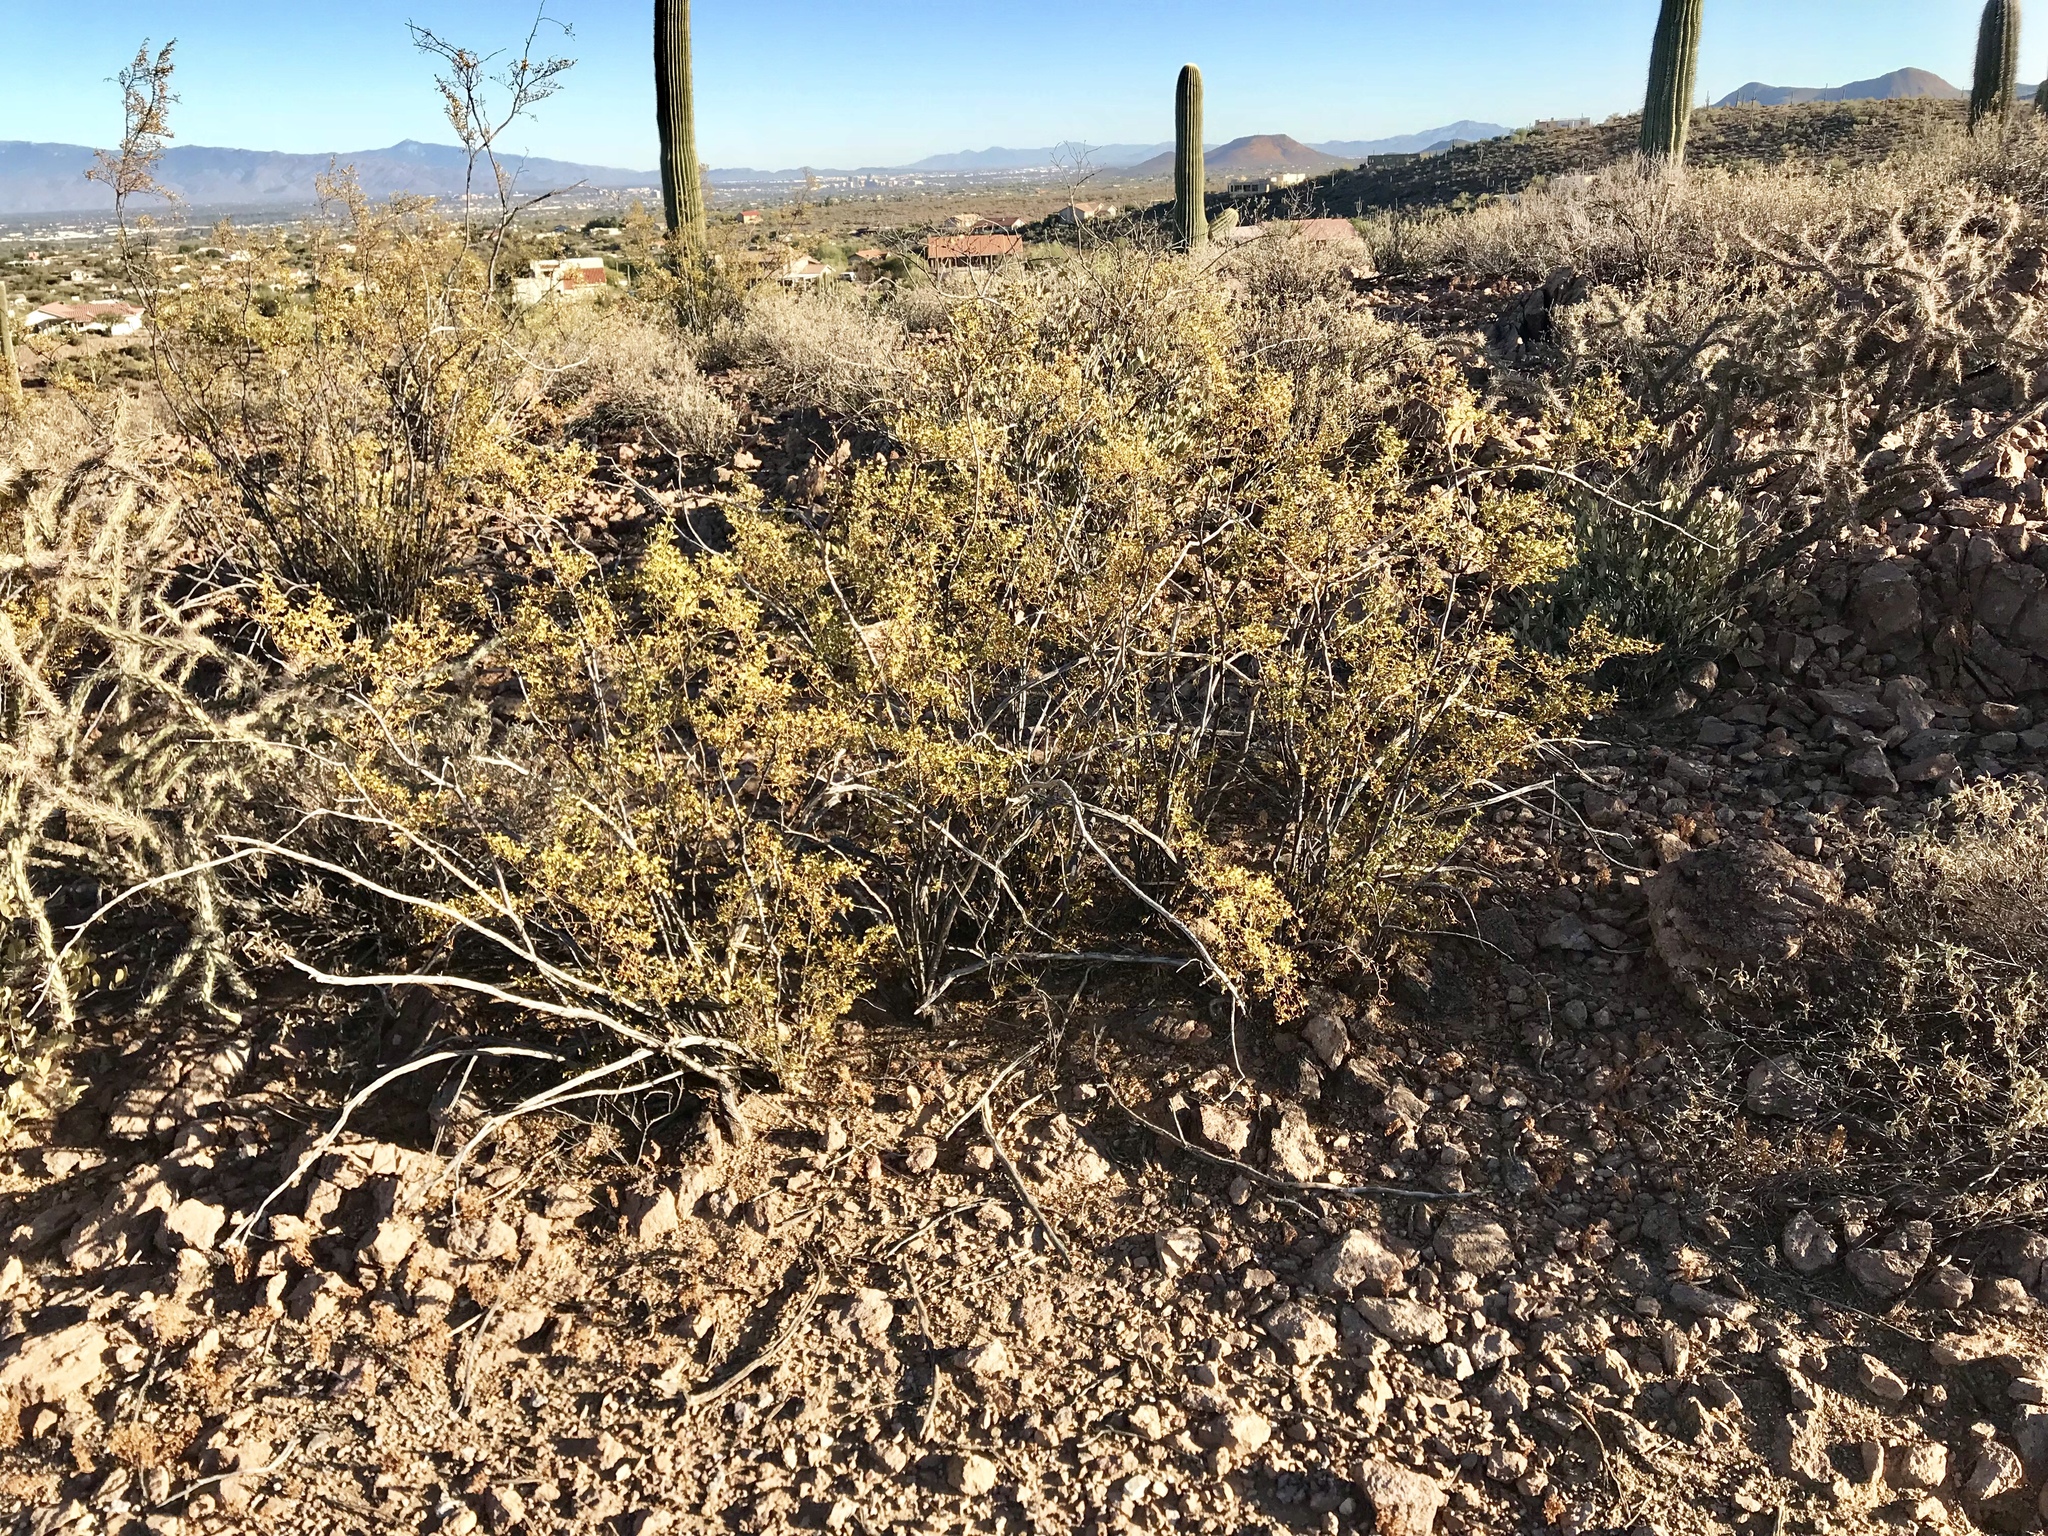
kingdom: Plantae
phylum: Tracheophyta
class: Magnoliopsida
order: Zygophyllales
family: Zygophyllaceae
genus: Larrea
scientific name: Larrea tridentata
